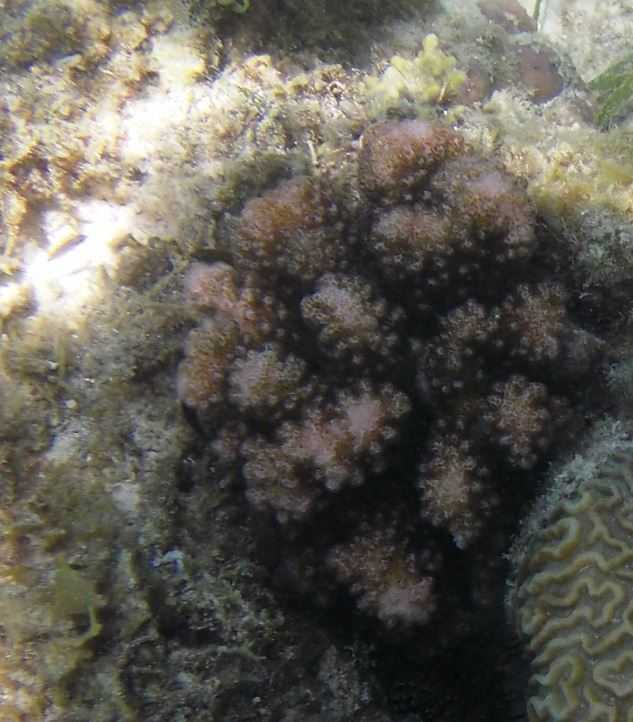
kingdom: Animalia
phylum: Cnidaria
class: Anthozoa
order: Scleractinia
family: Pocilloporidae
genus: Pocillopora
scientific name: Pocillopora verrucosa
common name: Cauliflower coral
